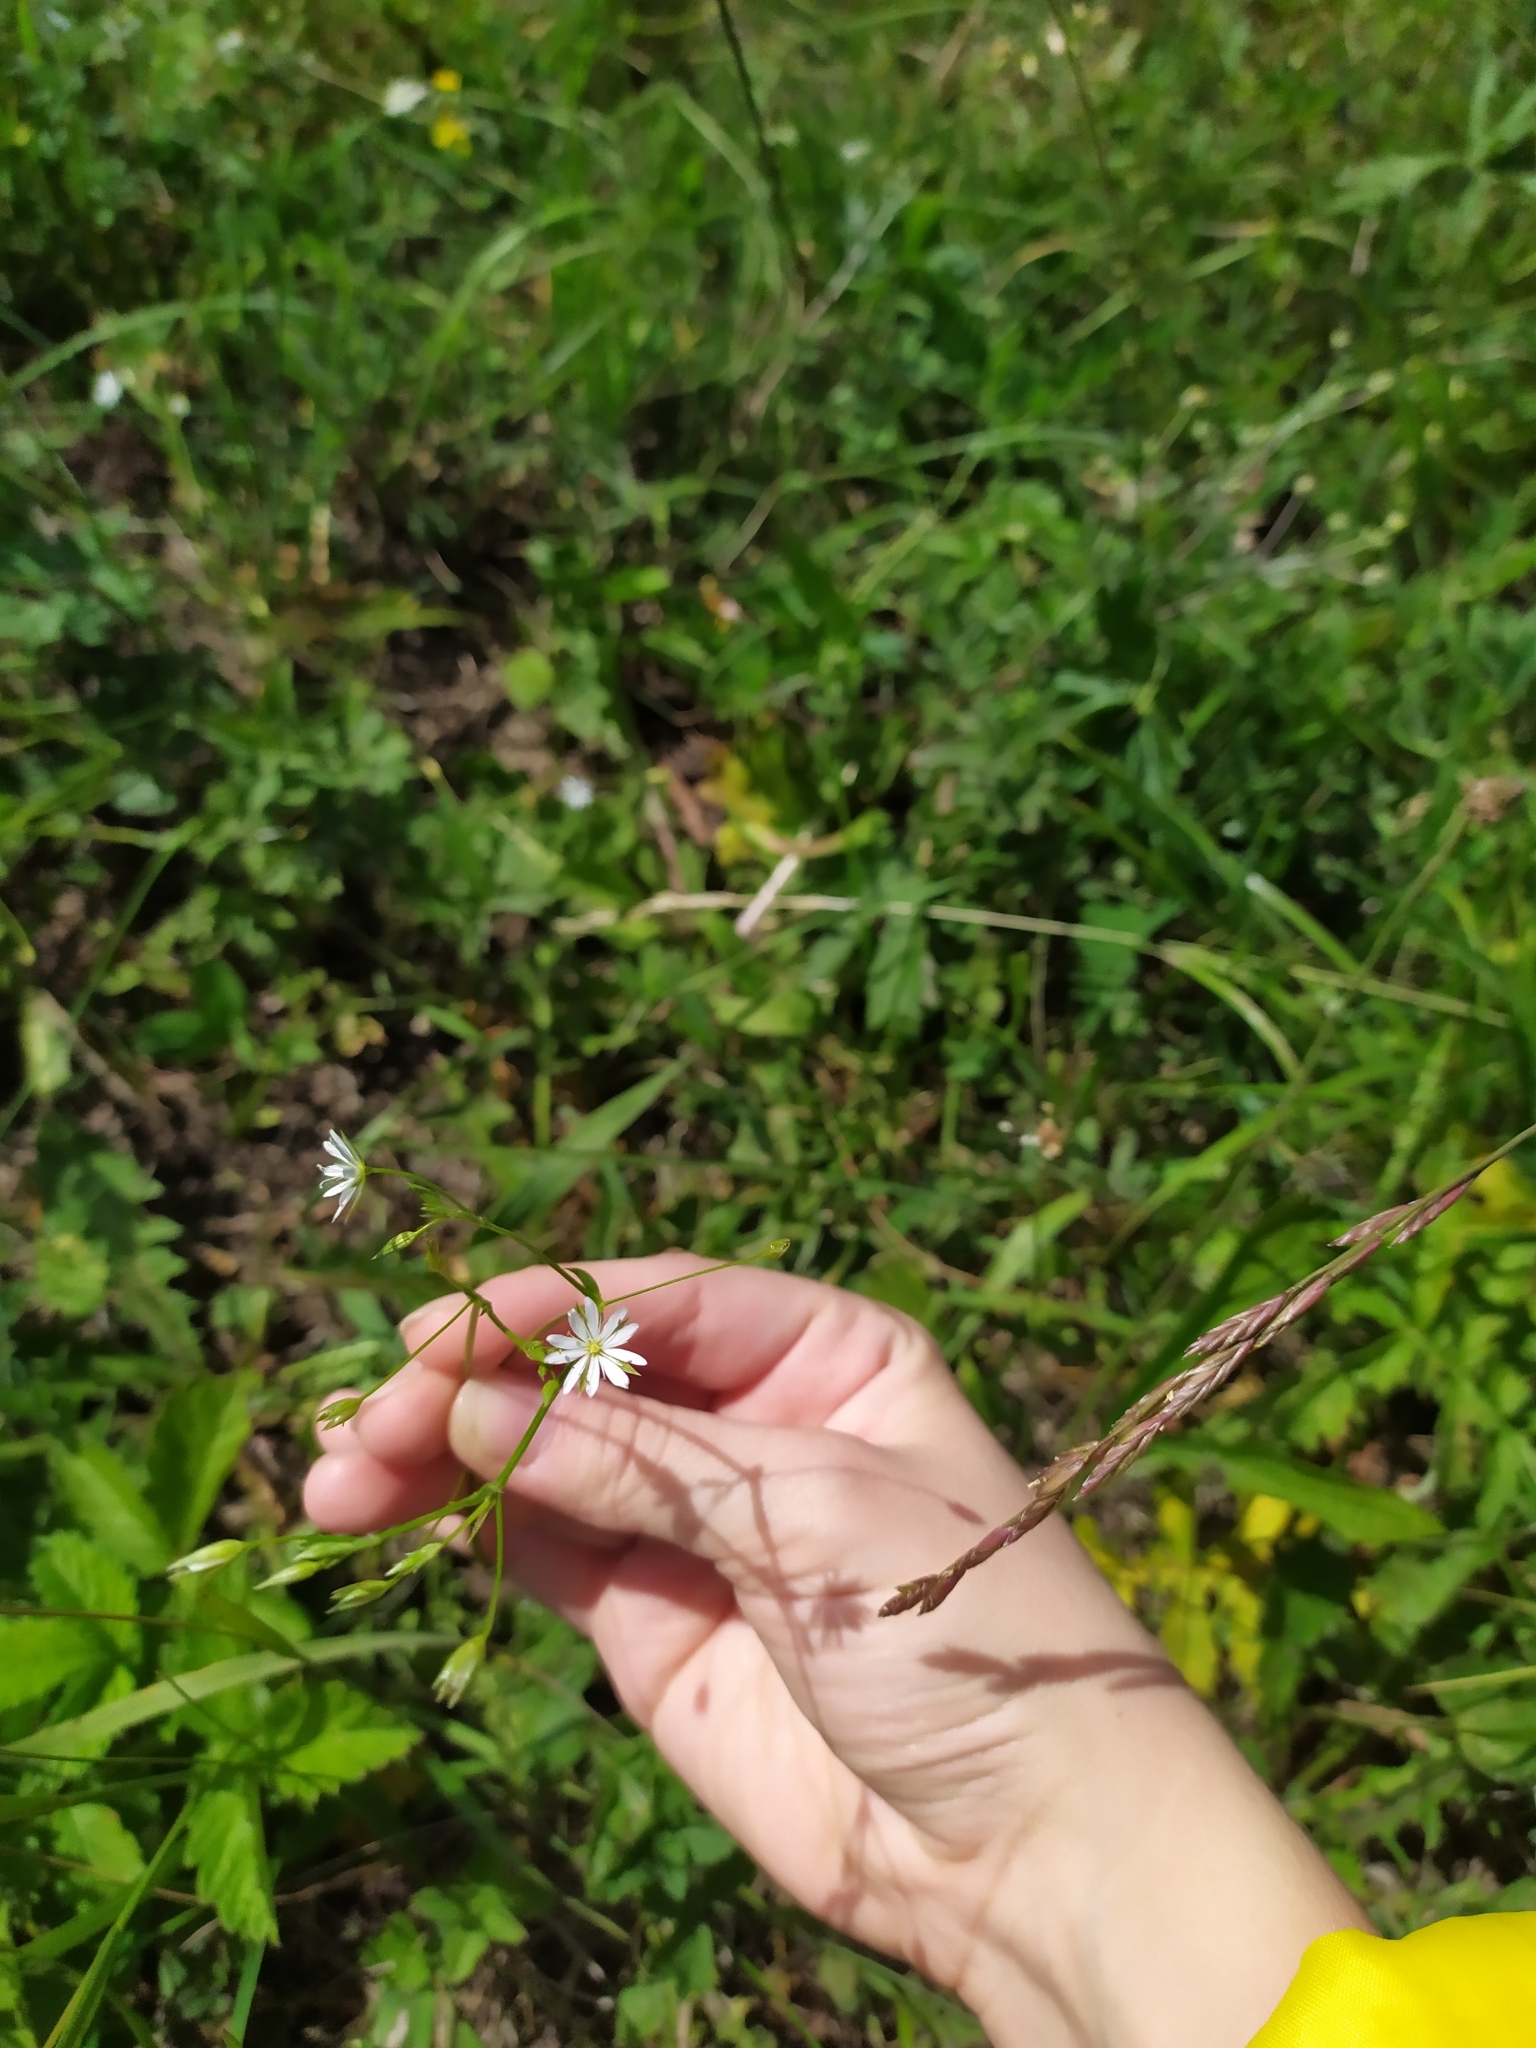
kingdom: Plantae
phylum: Tracheophyta
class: Magnoliopsida
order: Caryophyllales
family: Caryophyllaceae
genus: Stellaria
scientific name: Stellaria graminea
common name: Grass-like starwort
